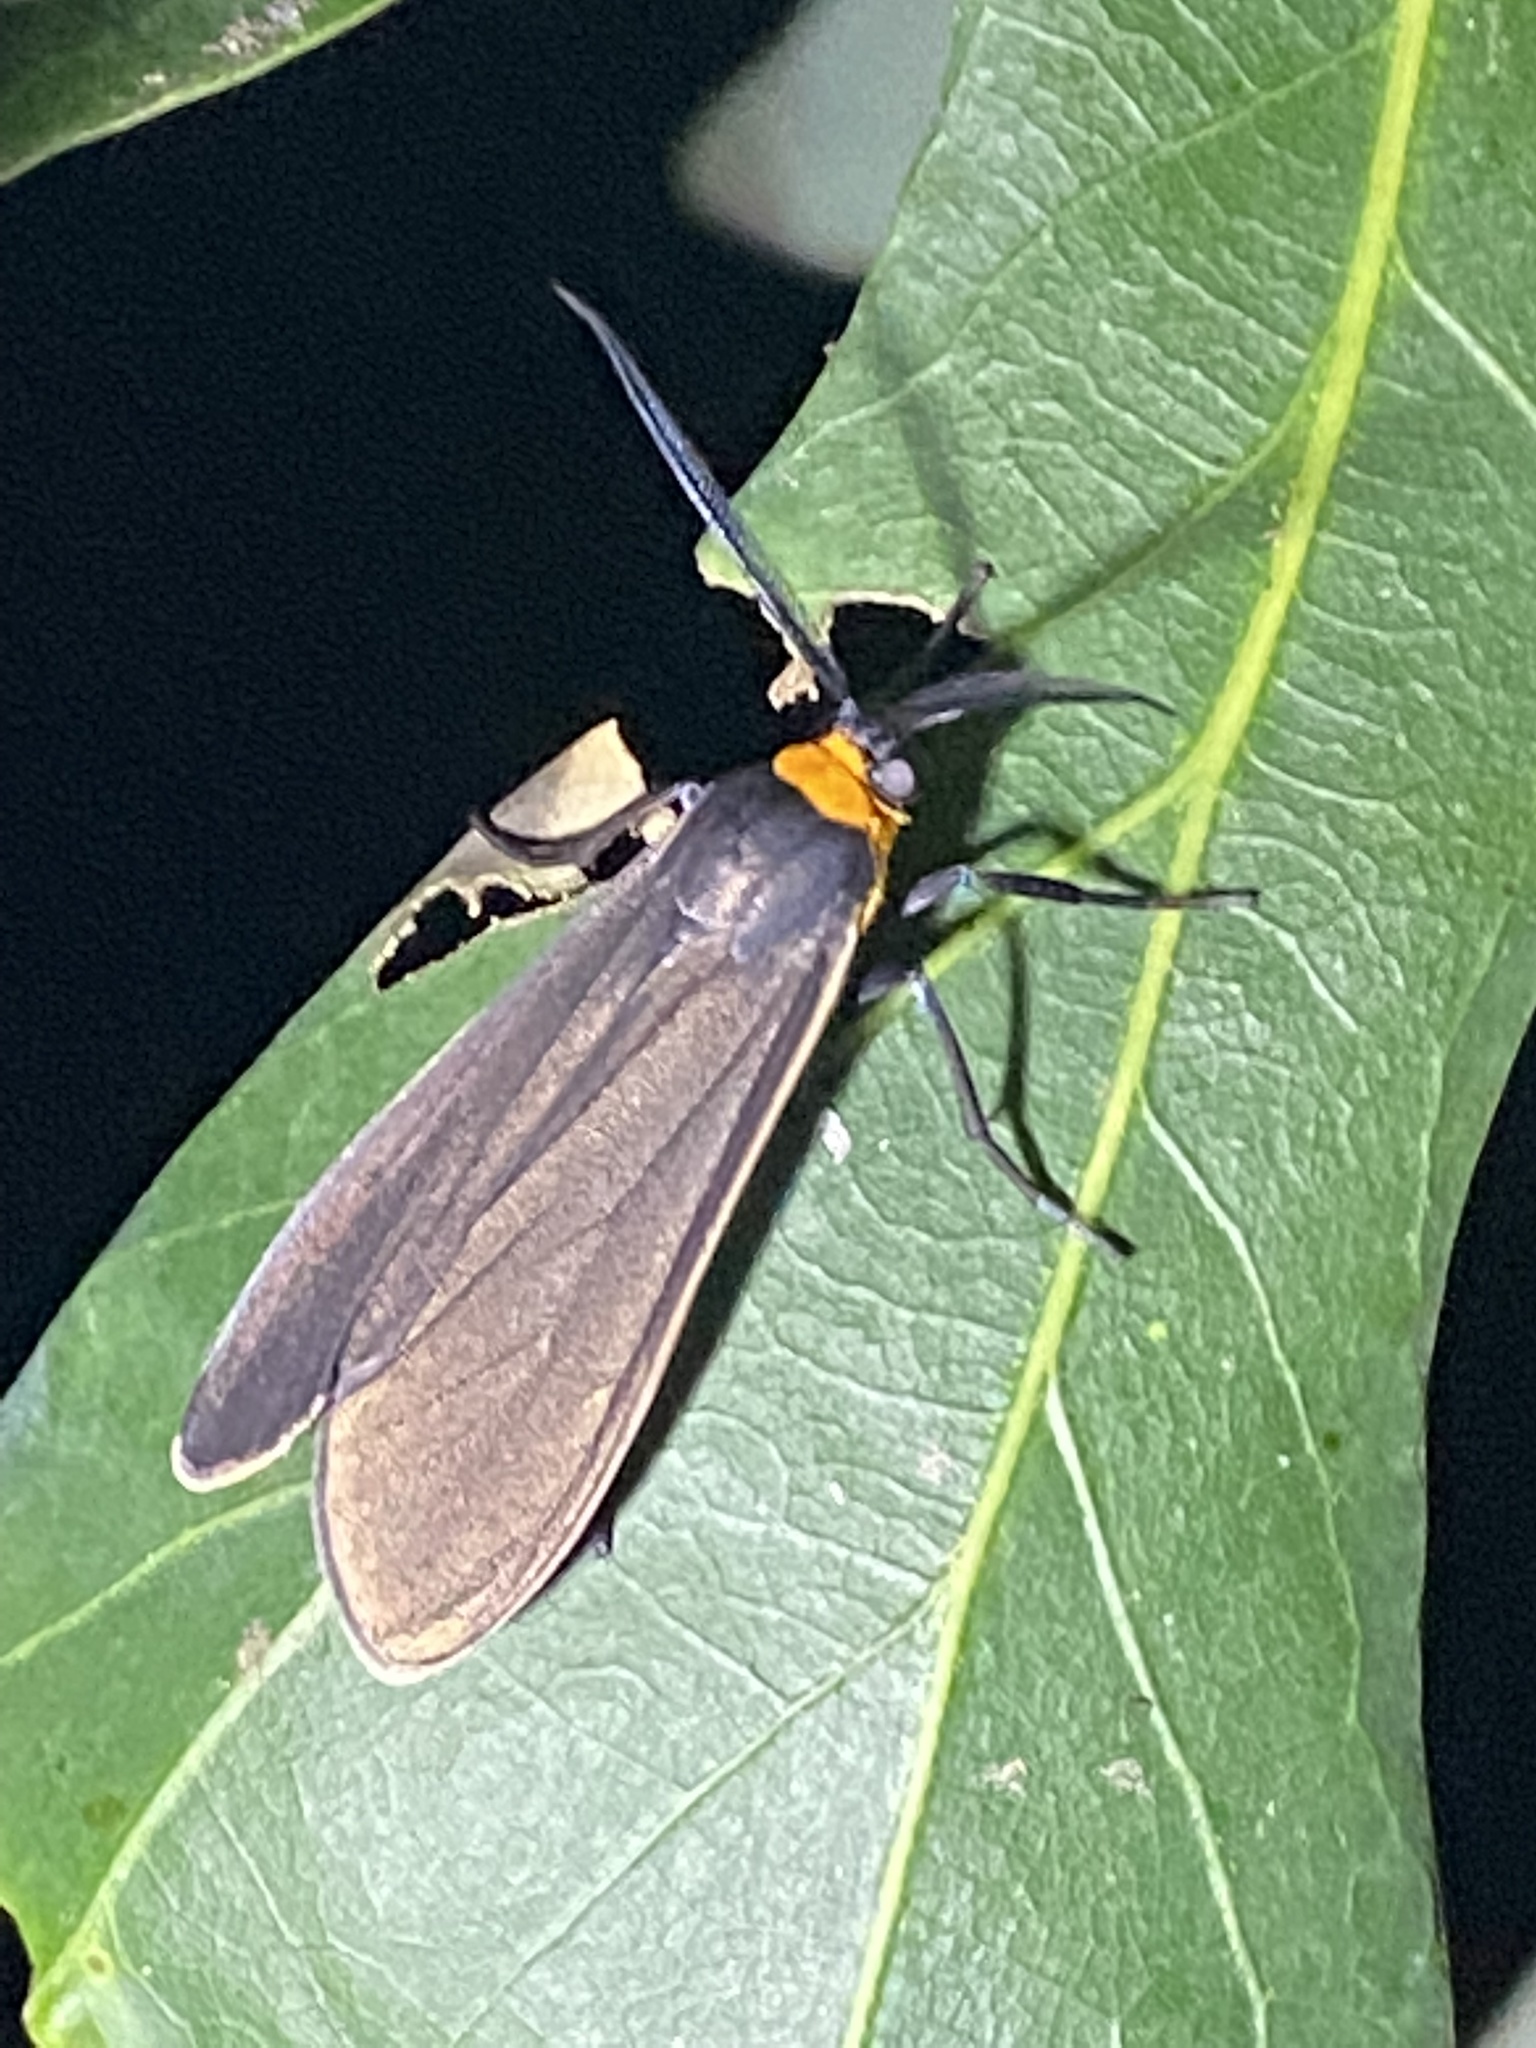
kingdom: Animalia
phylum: Arthropoda
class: Insecta
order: Lepidoptera
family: Erebidae
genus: Cisseps
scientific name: Cisseps fulvicollis
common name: Yellow-collared scape moth
